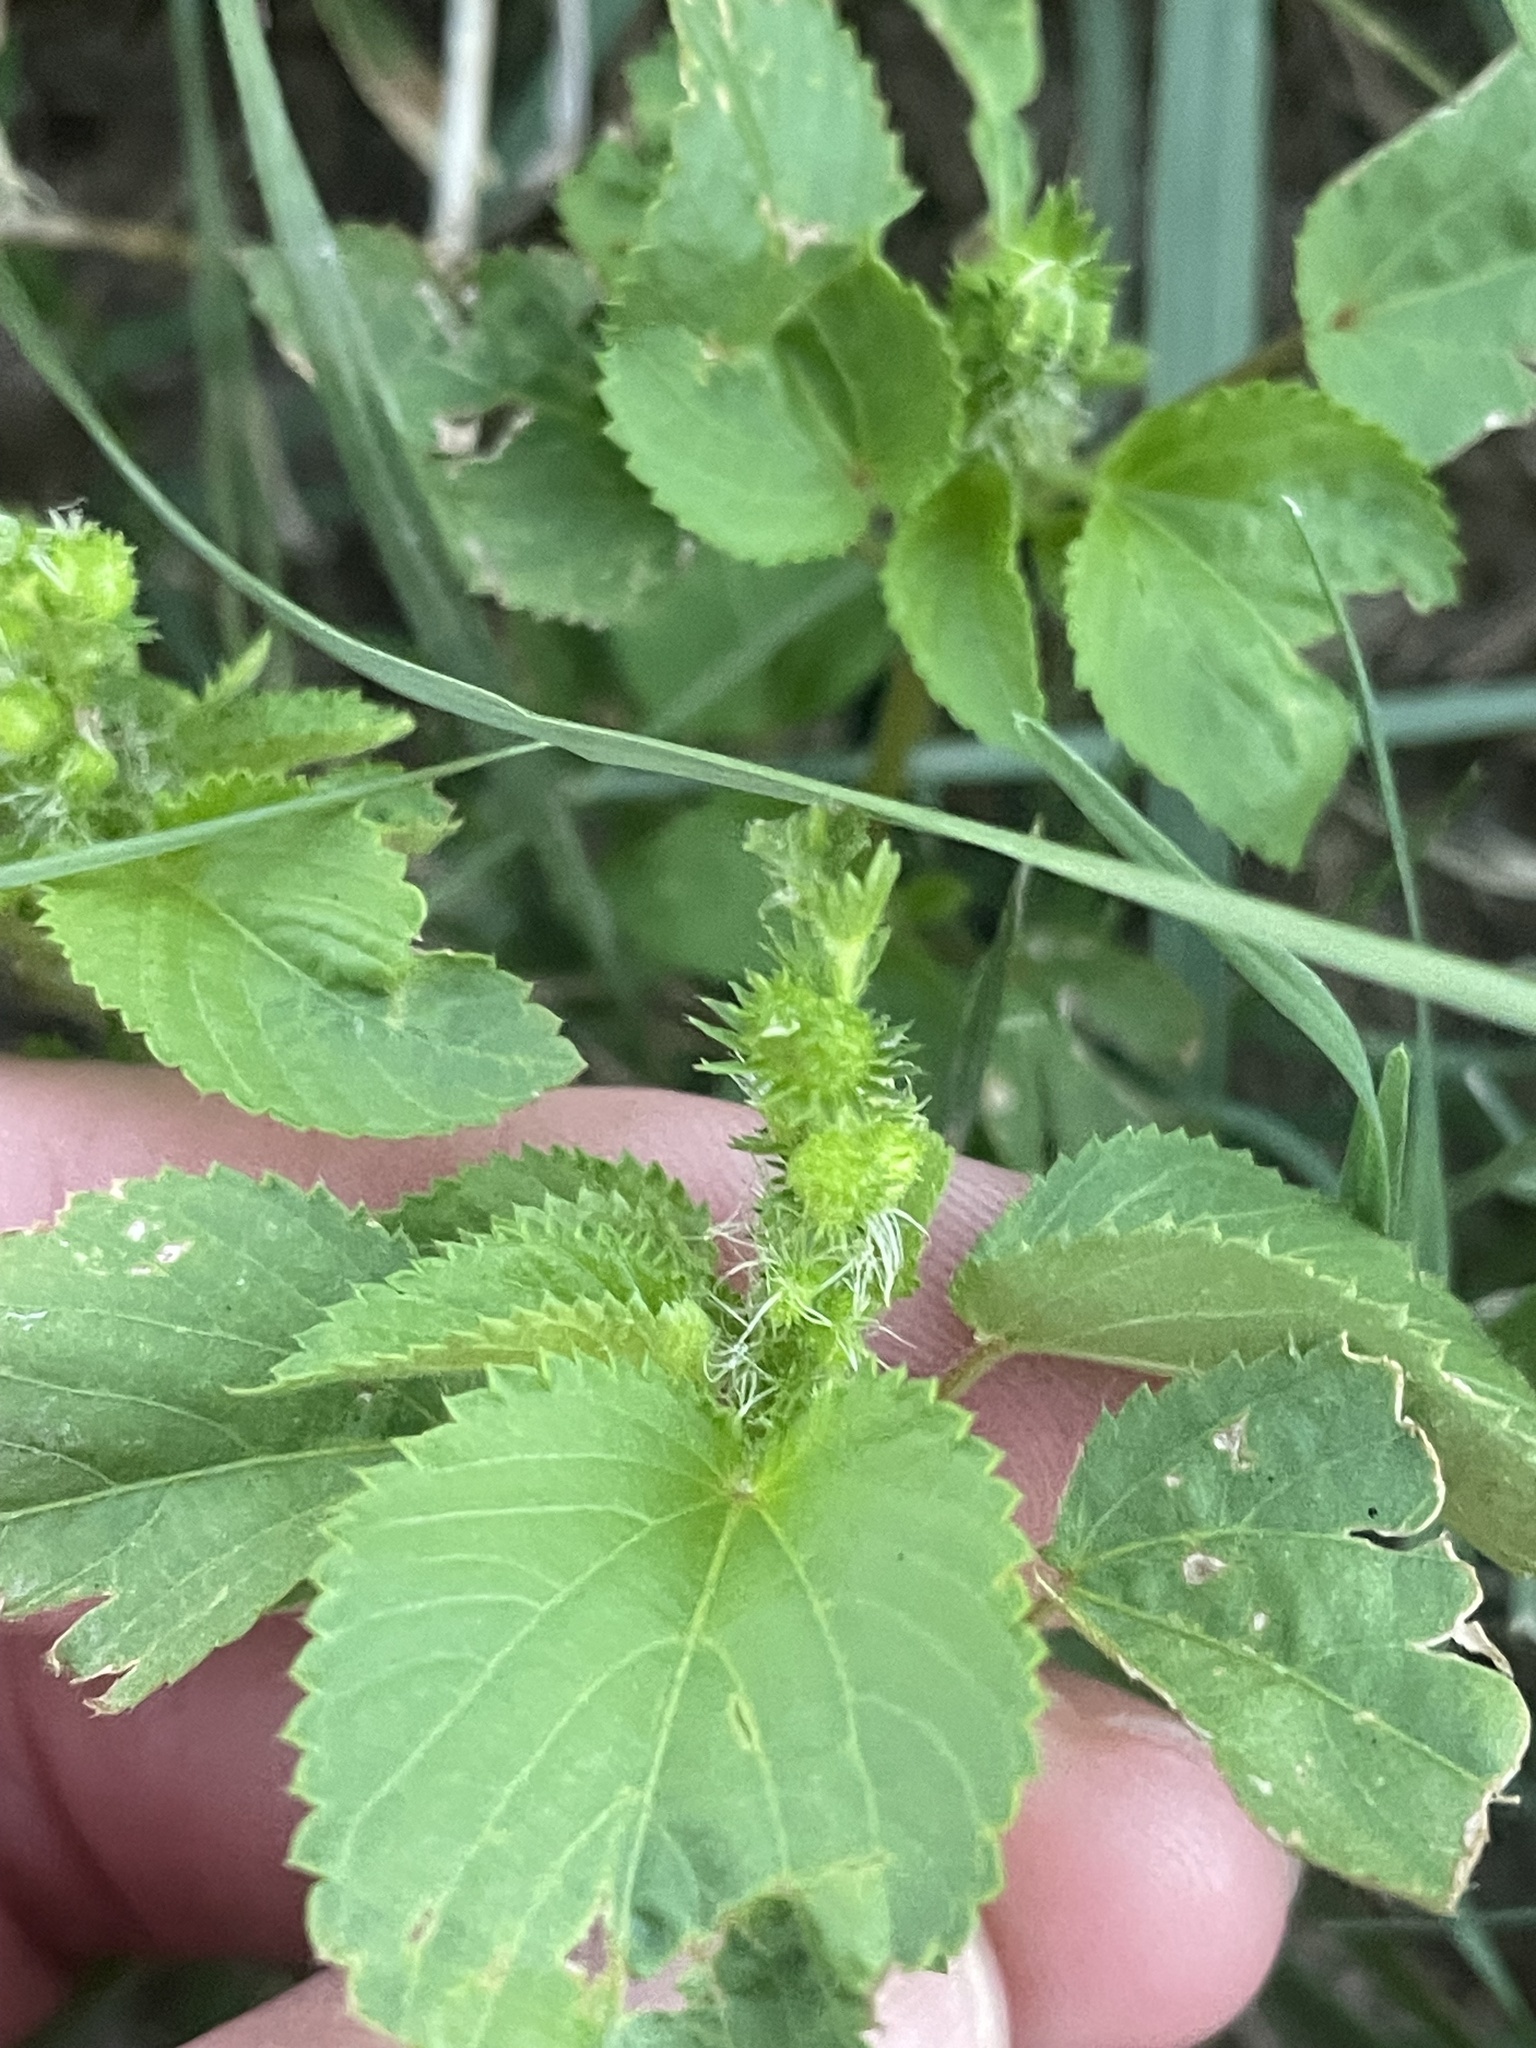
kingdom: Plantae
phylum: Tracheophyta
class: Magnoliopsida
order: Malpighiales
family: Euphorbiaceae
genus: Acalypha
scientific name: Acalypha ostryifolia
